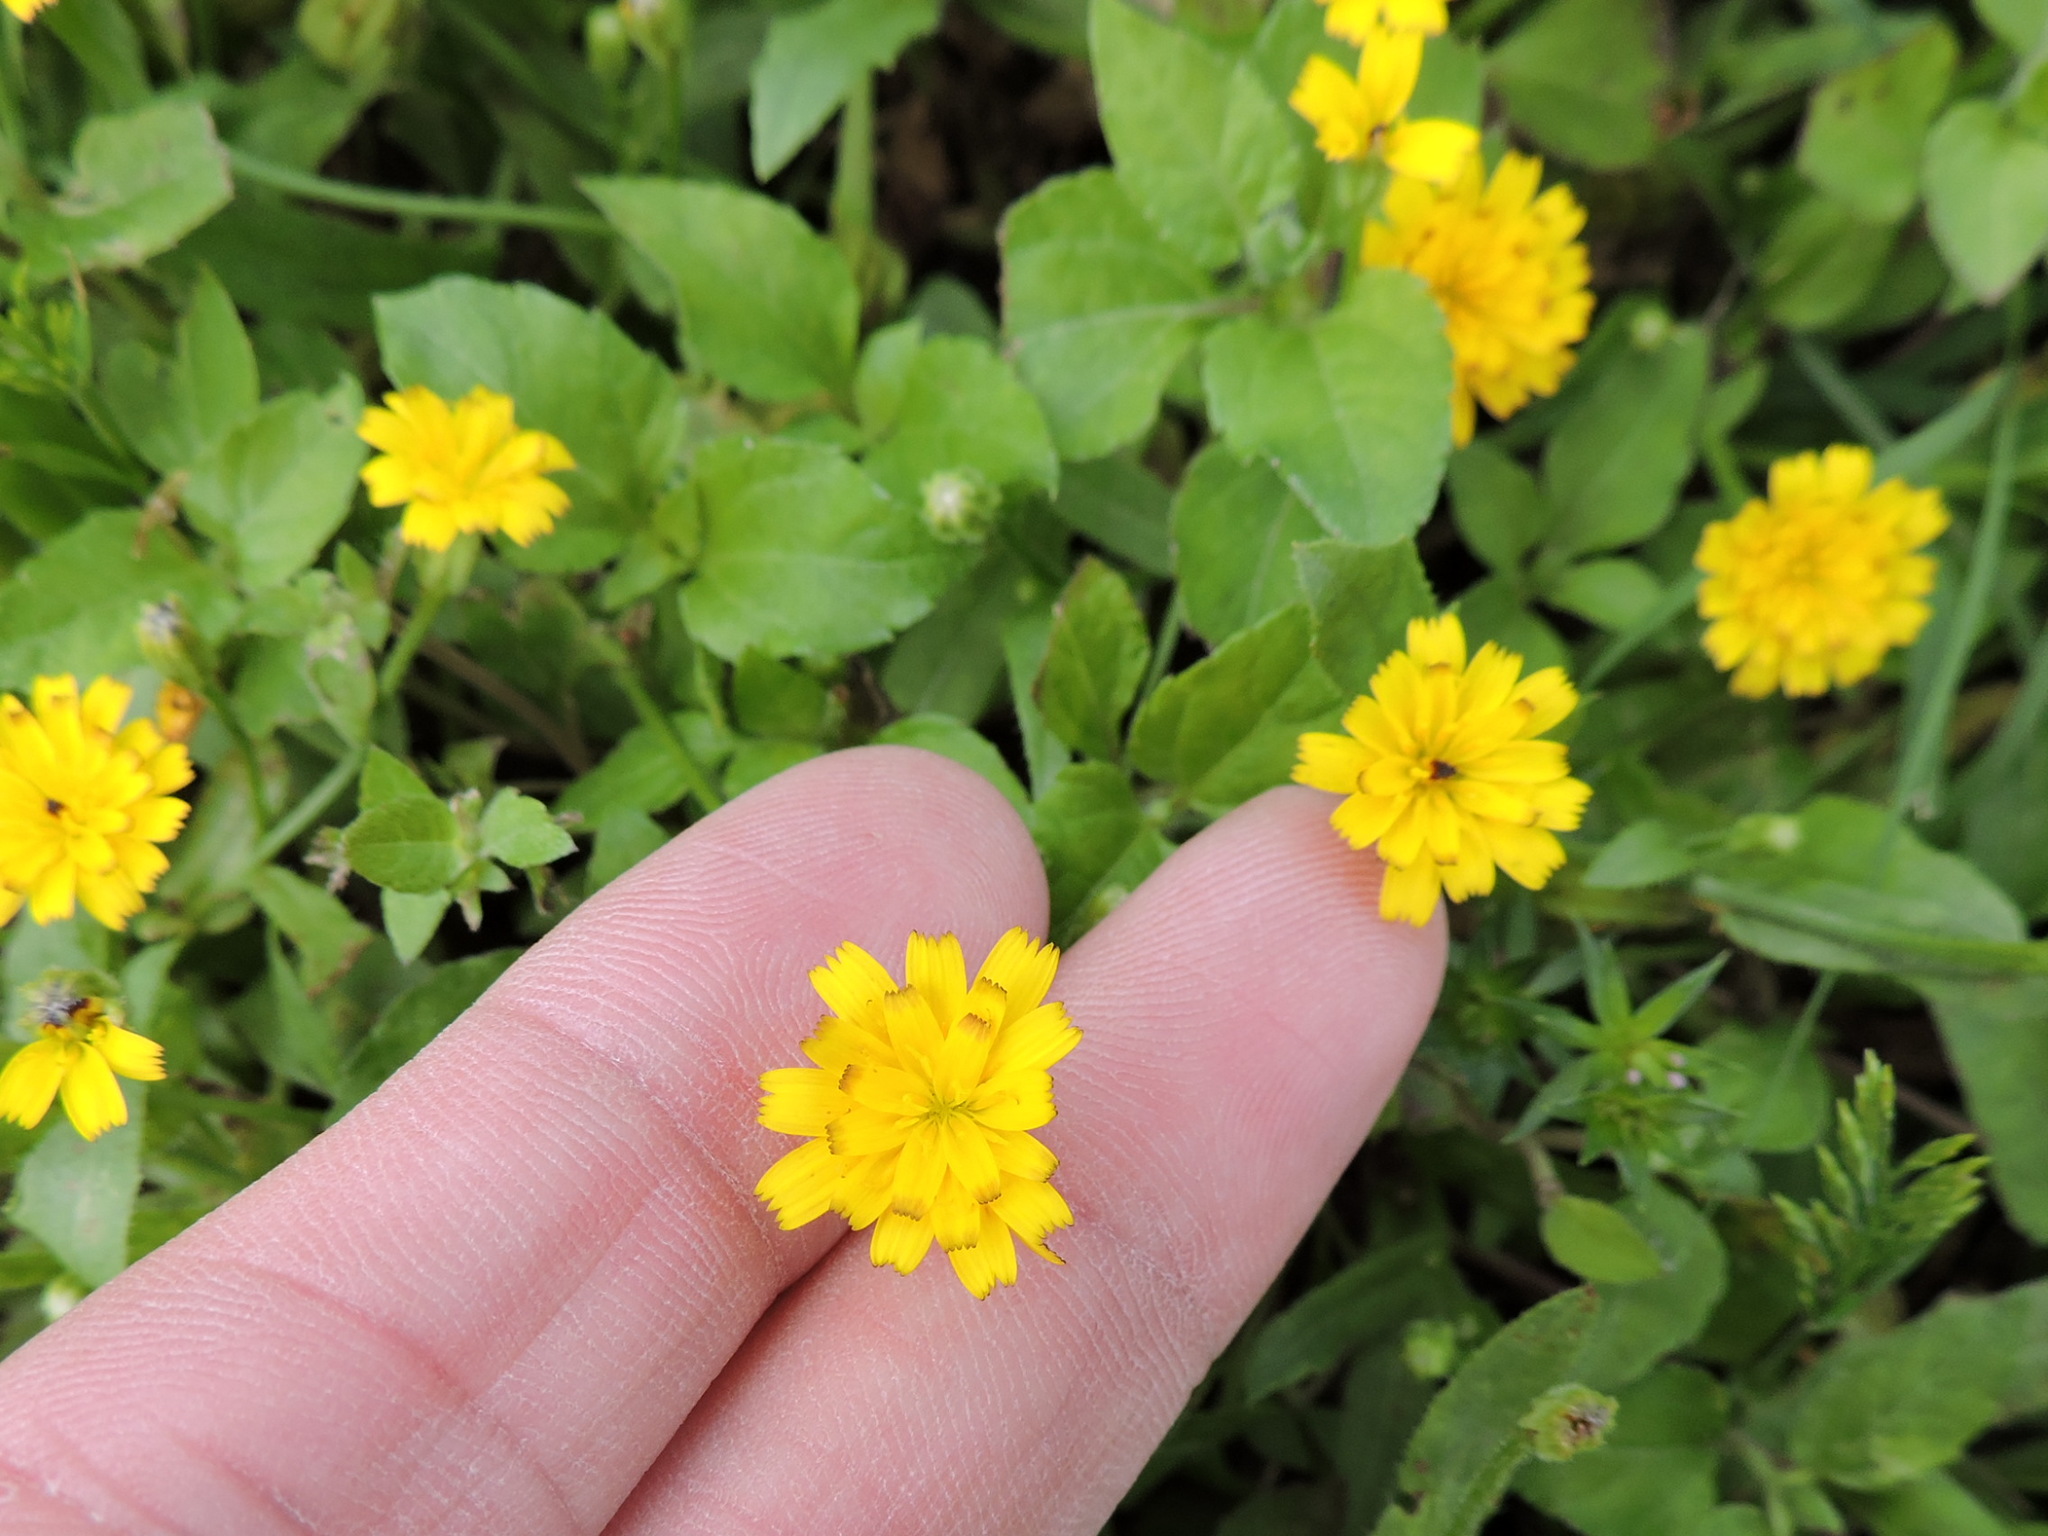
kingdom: Plantae
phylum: Tracheophyta
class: Magnoliopsida
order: Asterales
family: Asteraceae
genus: Hedypnois
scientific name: Hedypnois rhagadioloides
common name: Cretan weed
